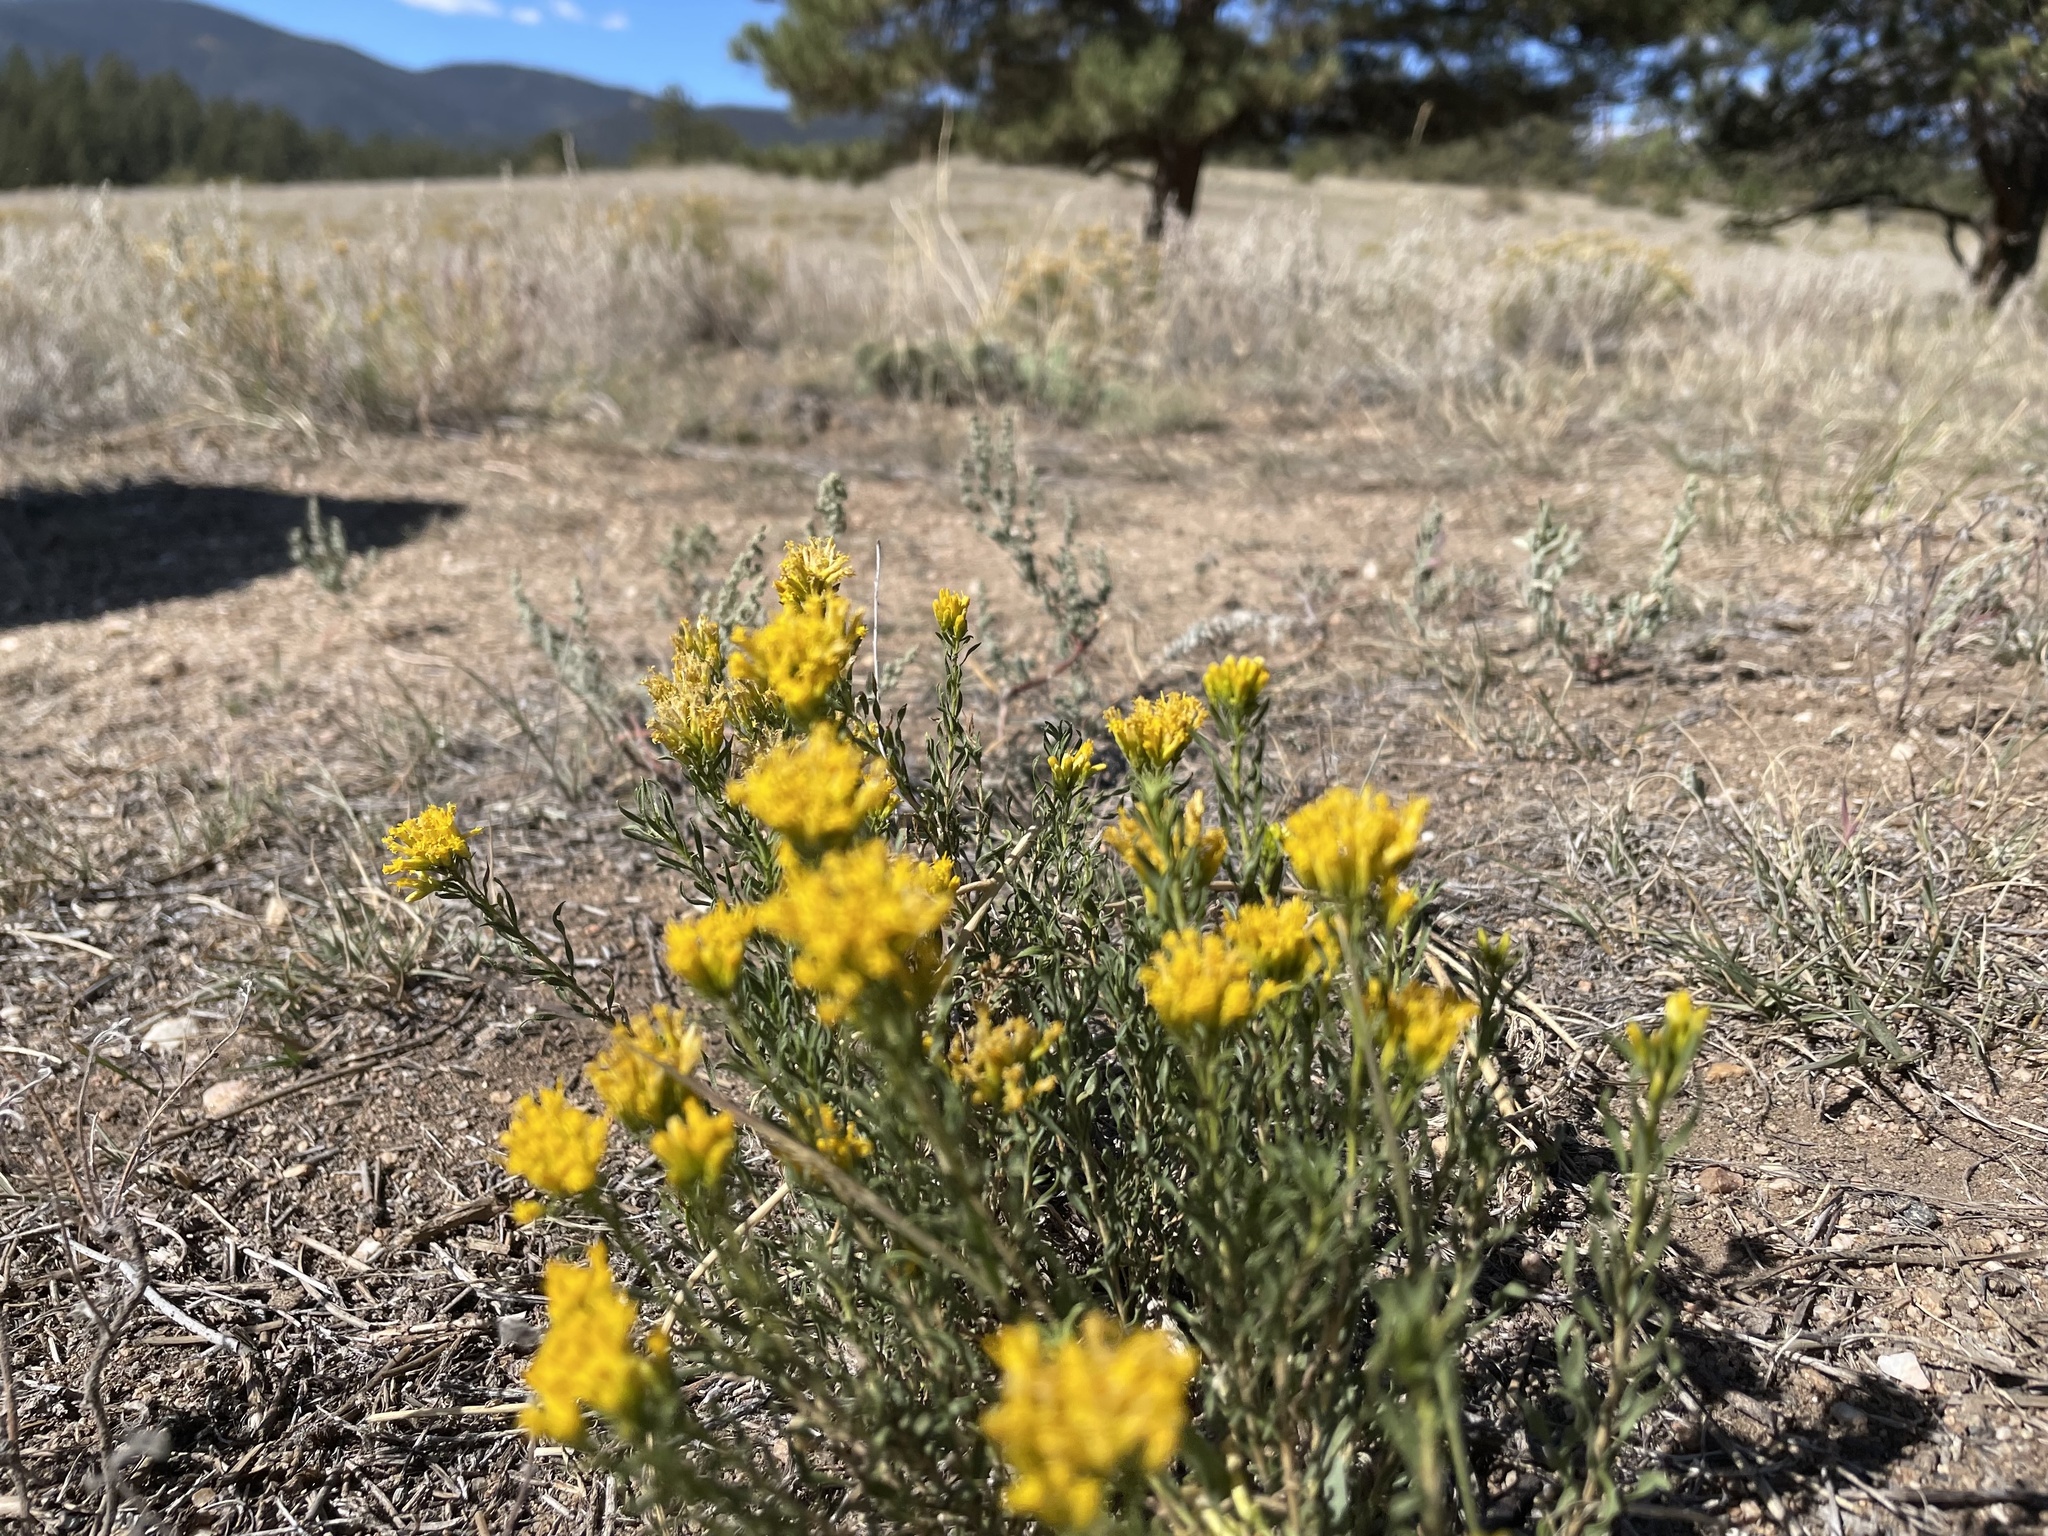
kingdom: Plantae
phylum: Tracheophyta
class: Magnoliopsida
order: Asterales
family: Asteraceae
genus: Chrysothamnus
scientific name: Chrysothamnus viscidiflorus
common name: Yellow rabbitbrush
